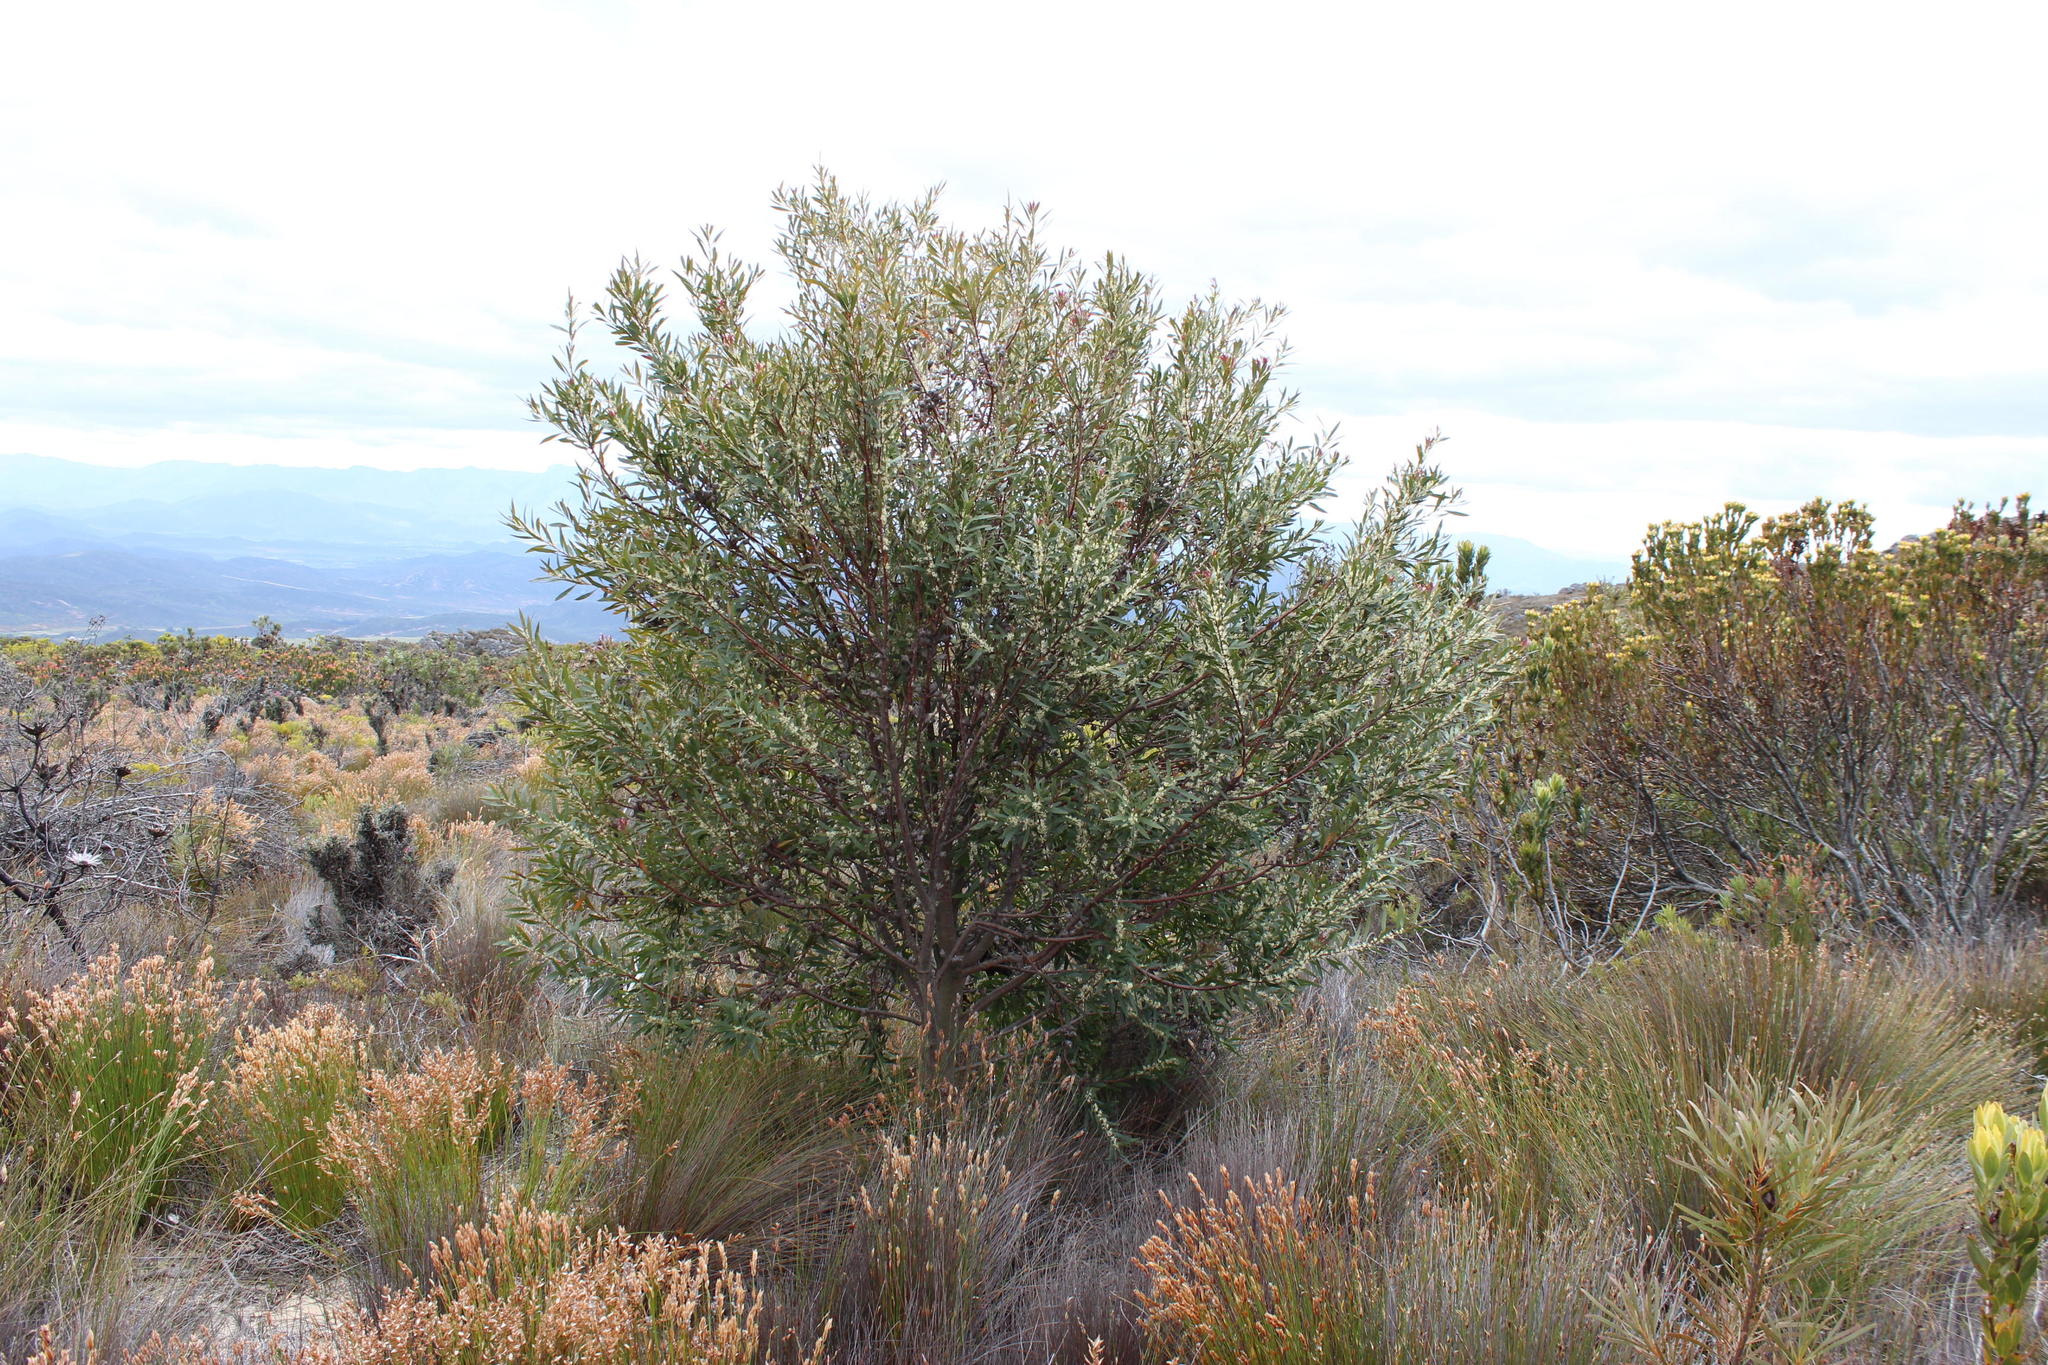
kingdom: Plantae
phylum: Tracheophyta
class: Magnoliopsida
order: Proteales
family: Proteaceae
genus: Hakea
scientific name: Hakea salicifolia
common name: Willow hakea
